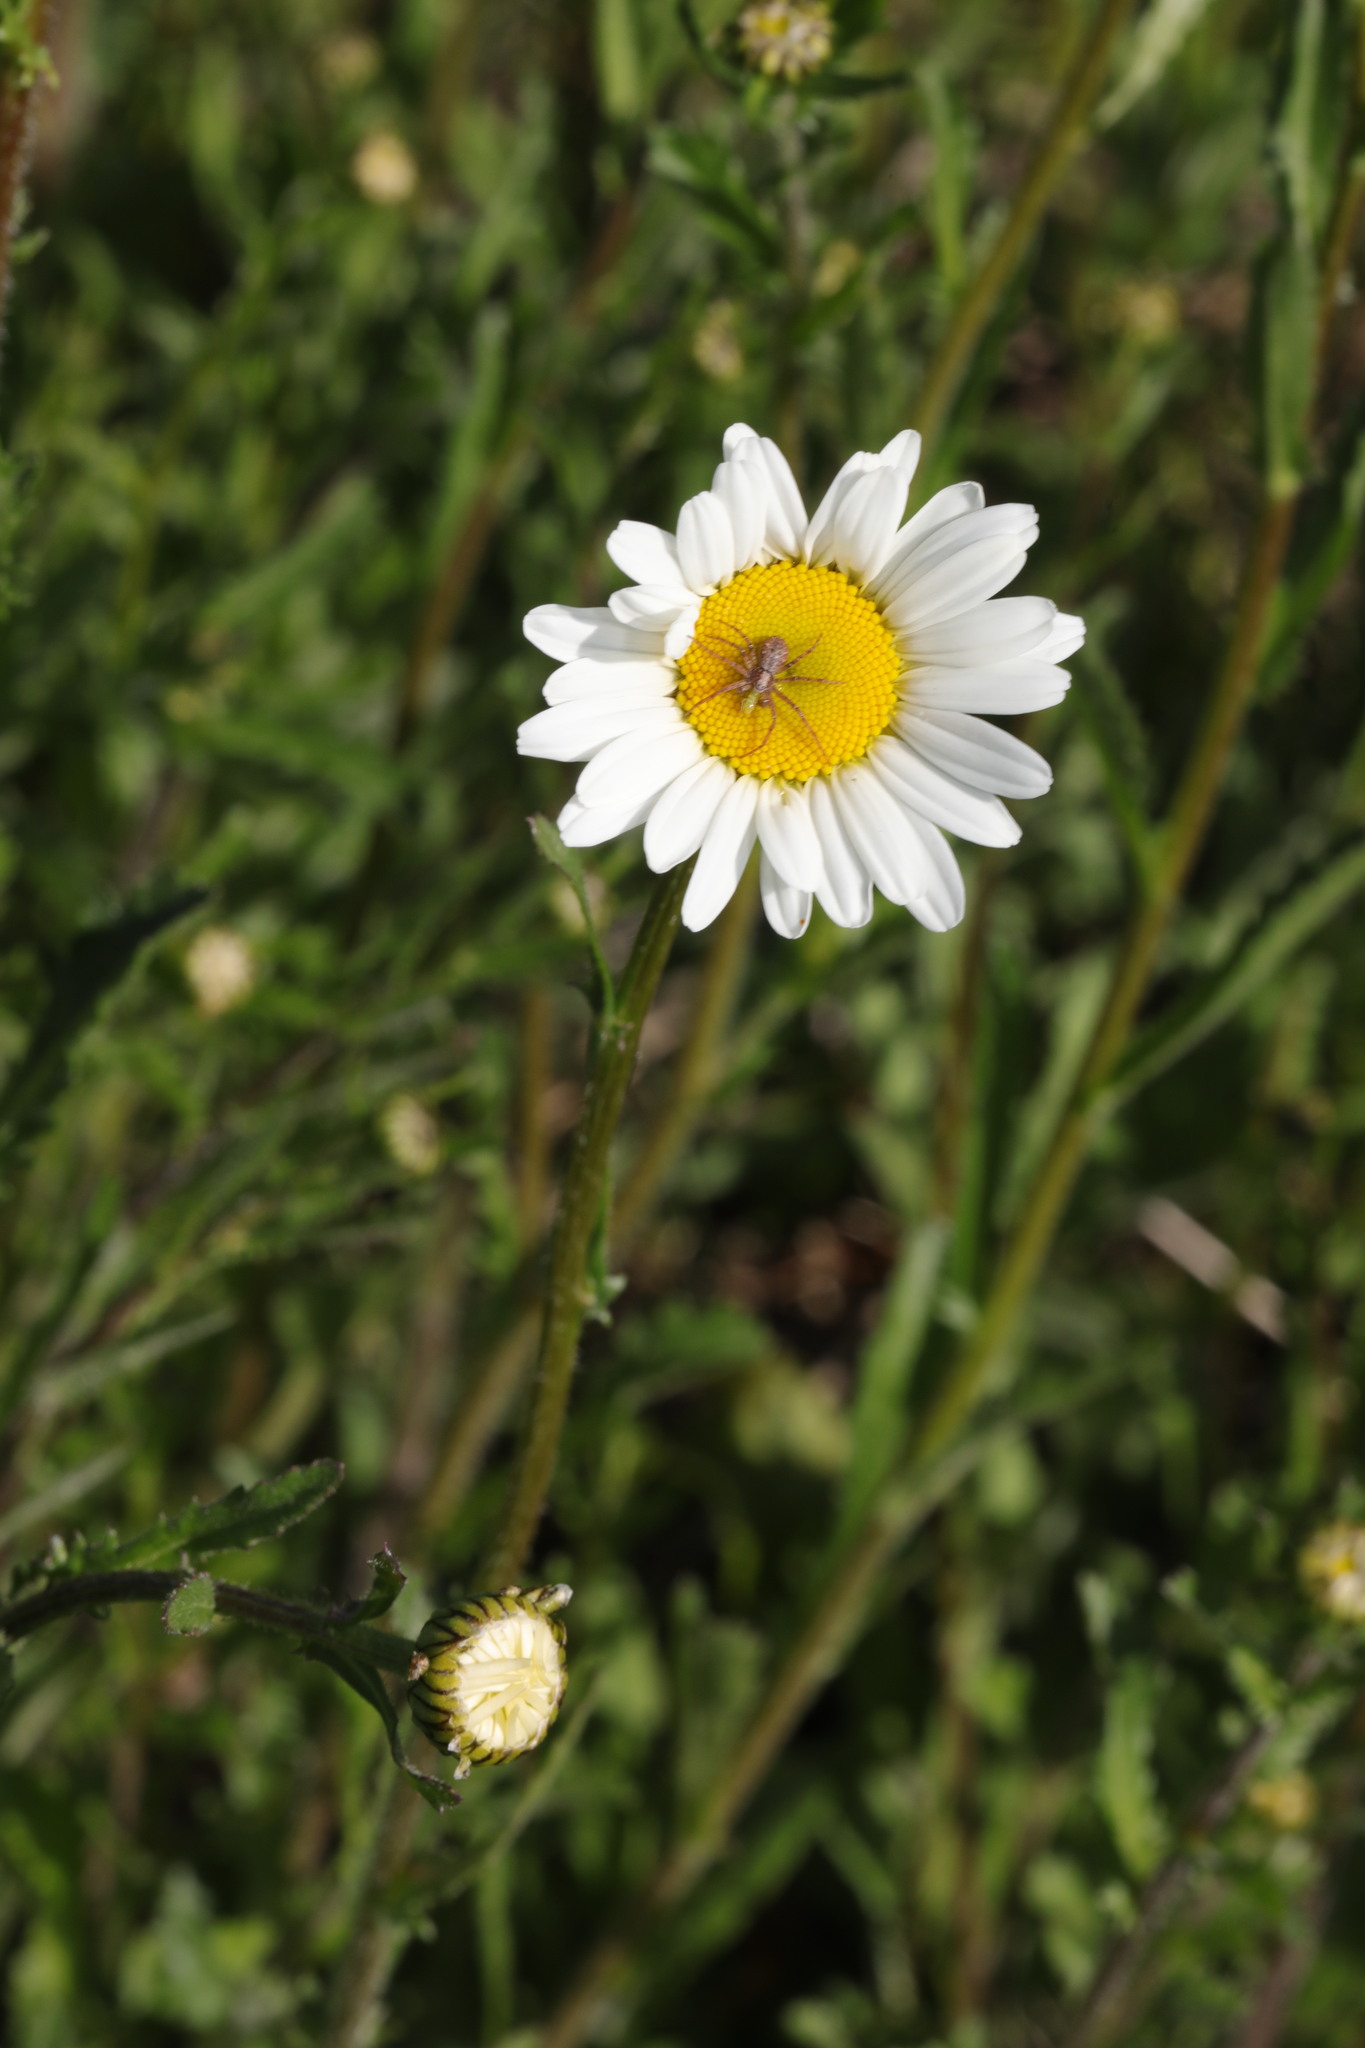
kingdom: Plantae
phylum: Tracheophyta
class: Magnoliopsida
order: Asterales
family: Asteraceae
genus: Leucanthemum
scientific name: Leucanthemum vulgare
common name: Oxeye daisy
